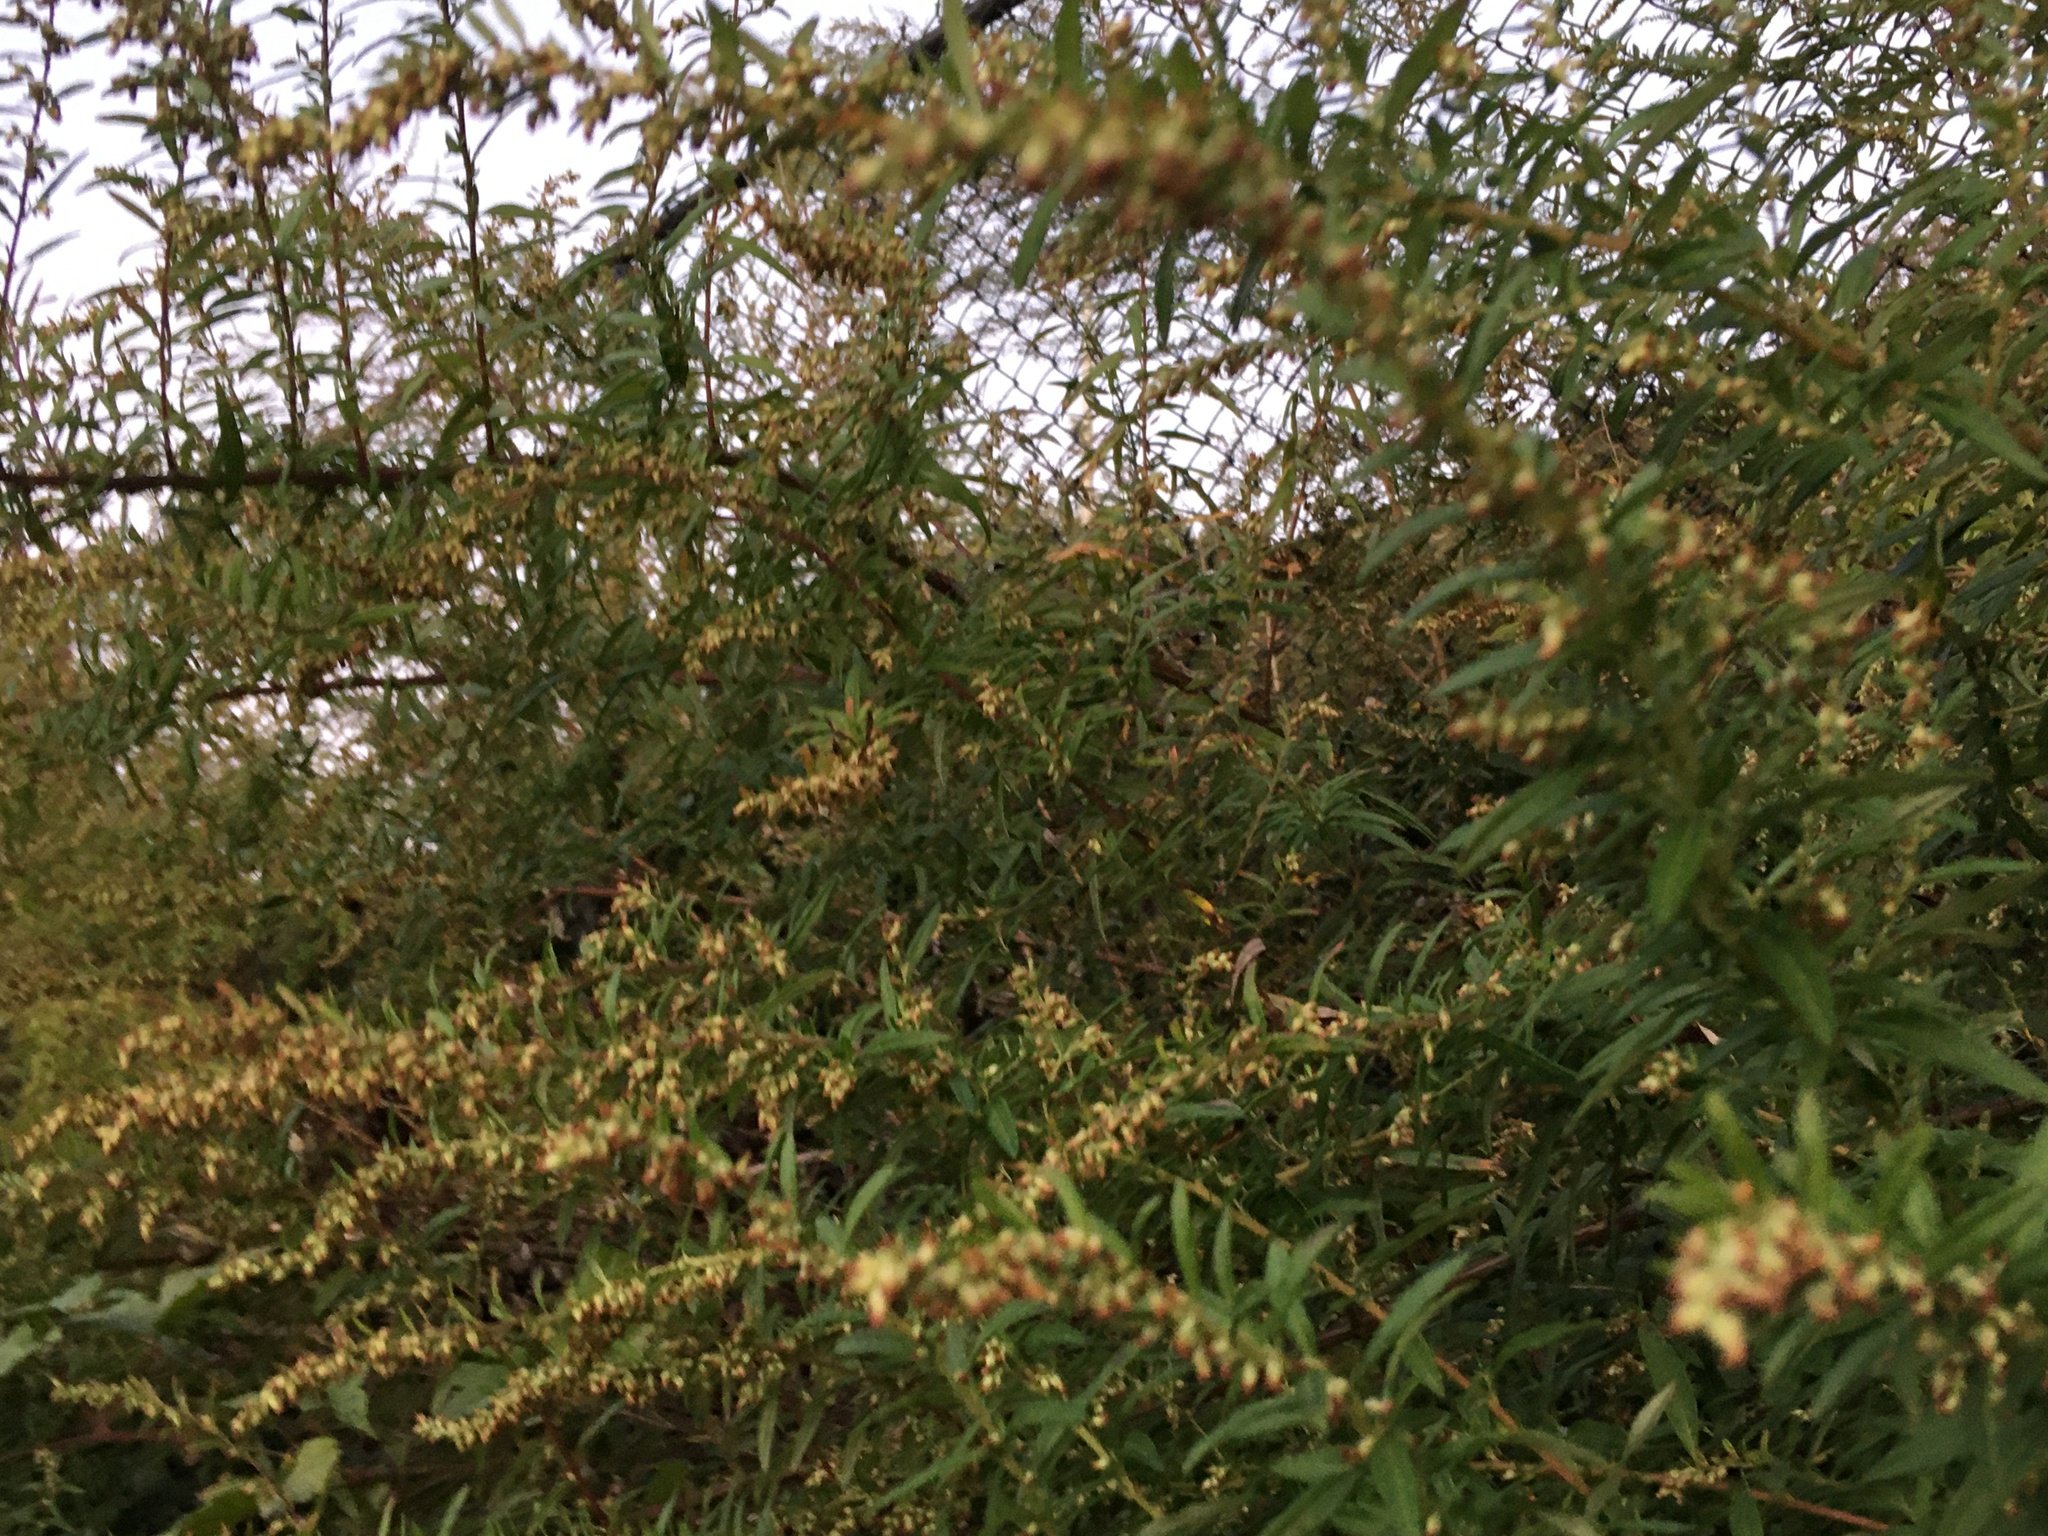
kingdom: Plantae
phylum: Tracheophyta
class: Magnoliopsida
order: Asterales
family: Asteraceae
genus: Artemisia
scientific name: Artemisia vulgaris
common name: Mugwort
